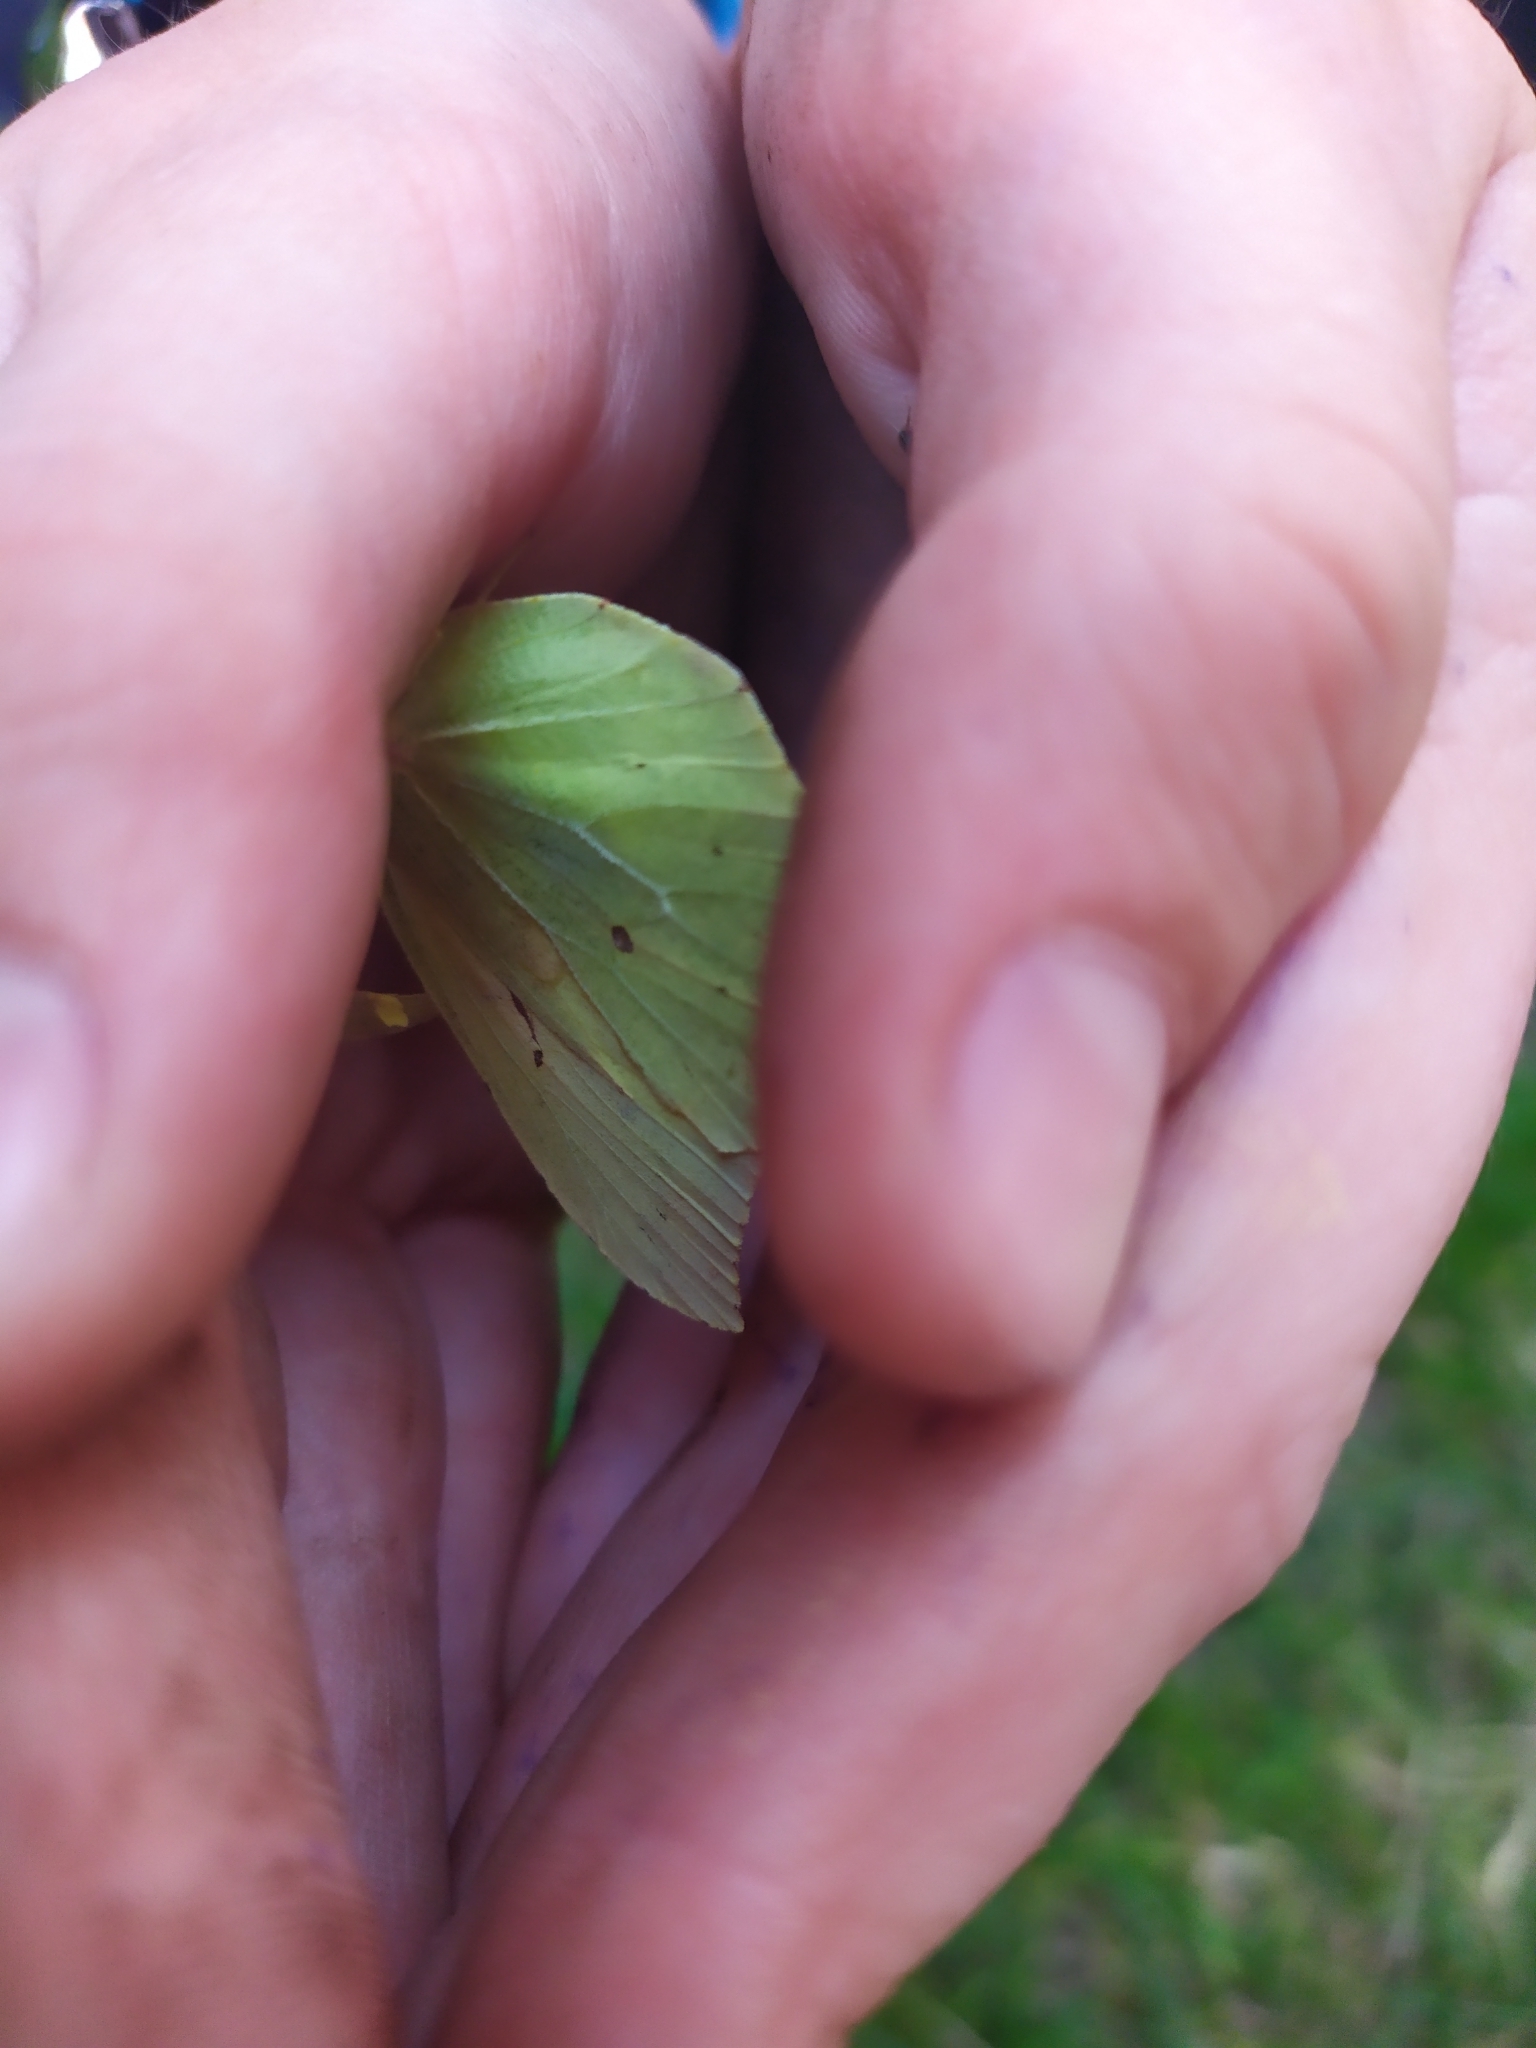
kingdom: Animalia
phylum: Arthropoda
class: Insecta
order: Lepidoptera
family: Pieridae
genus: Gonepteryx
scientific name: Gonepteryx rhamni
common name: Brimstone
